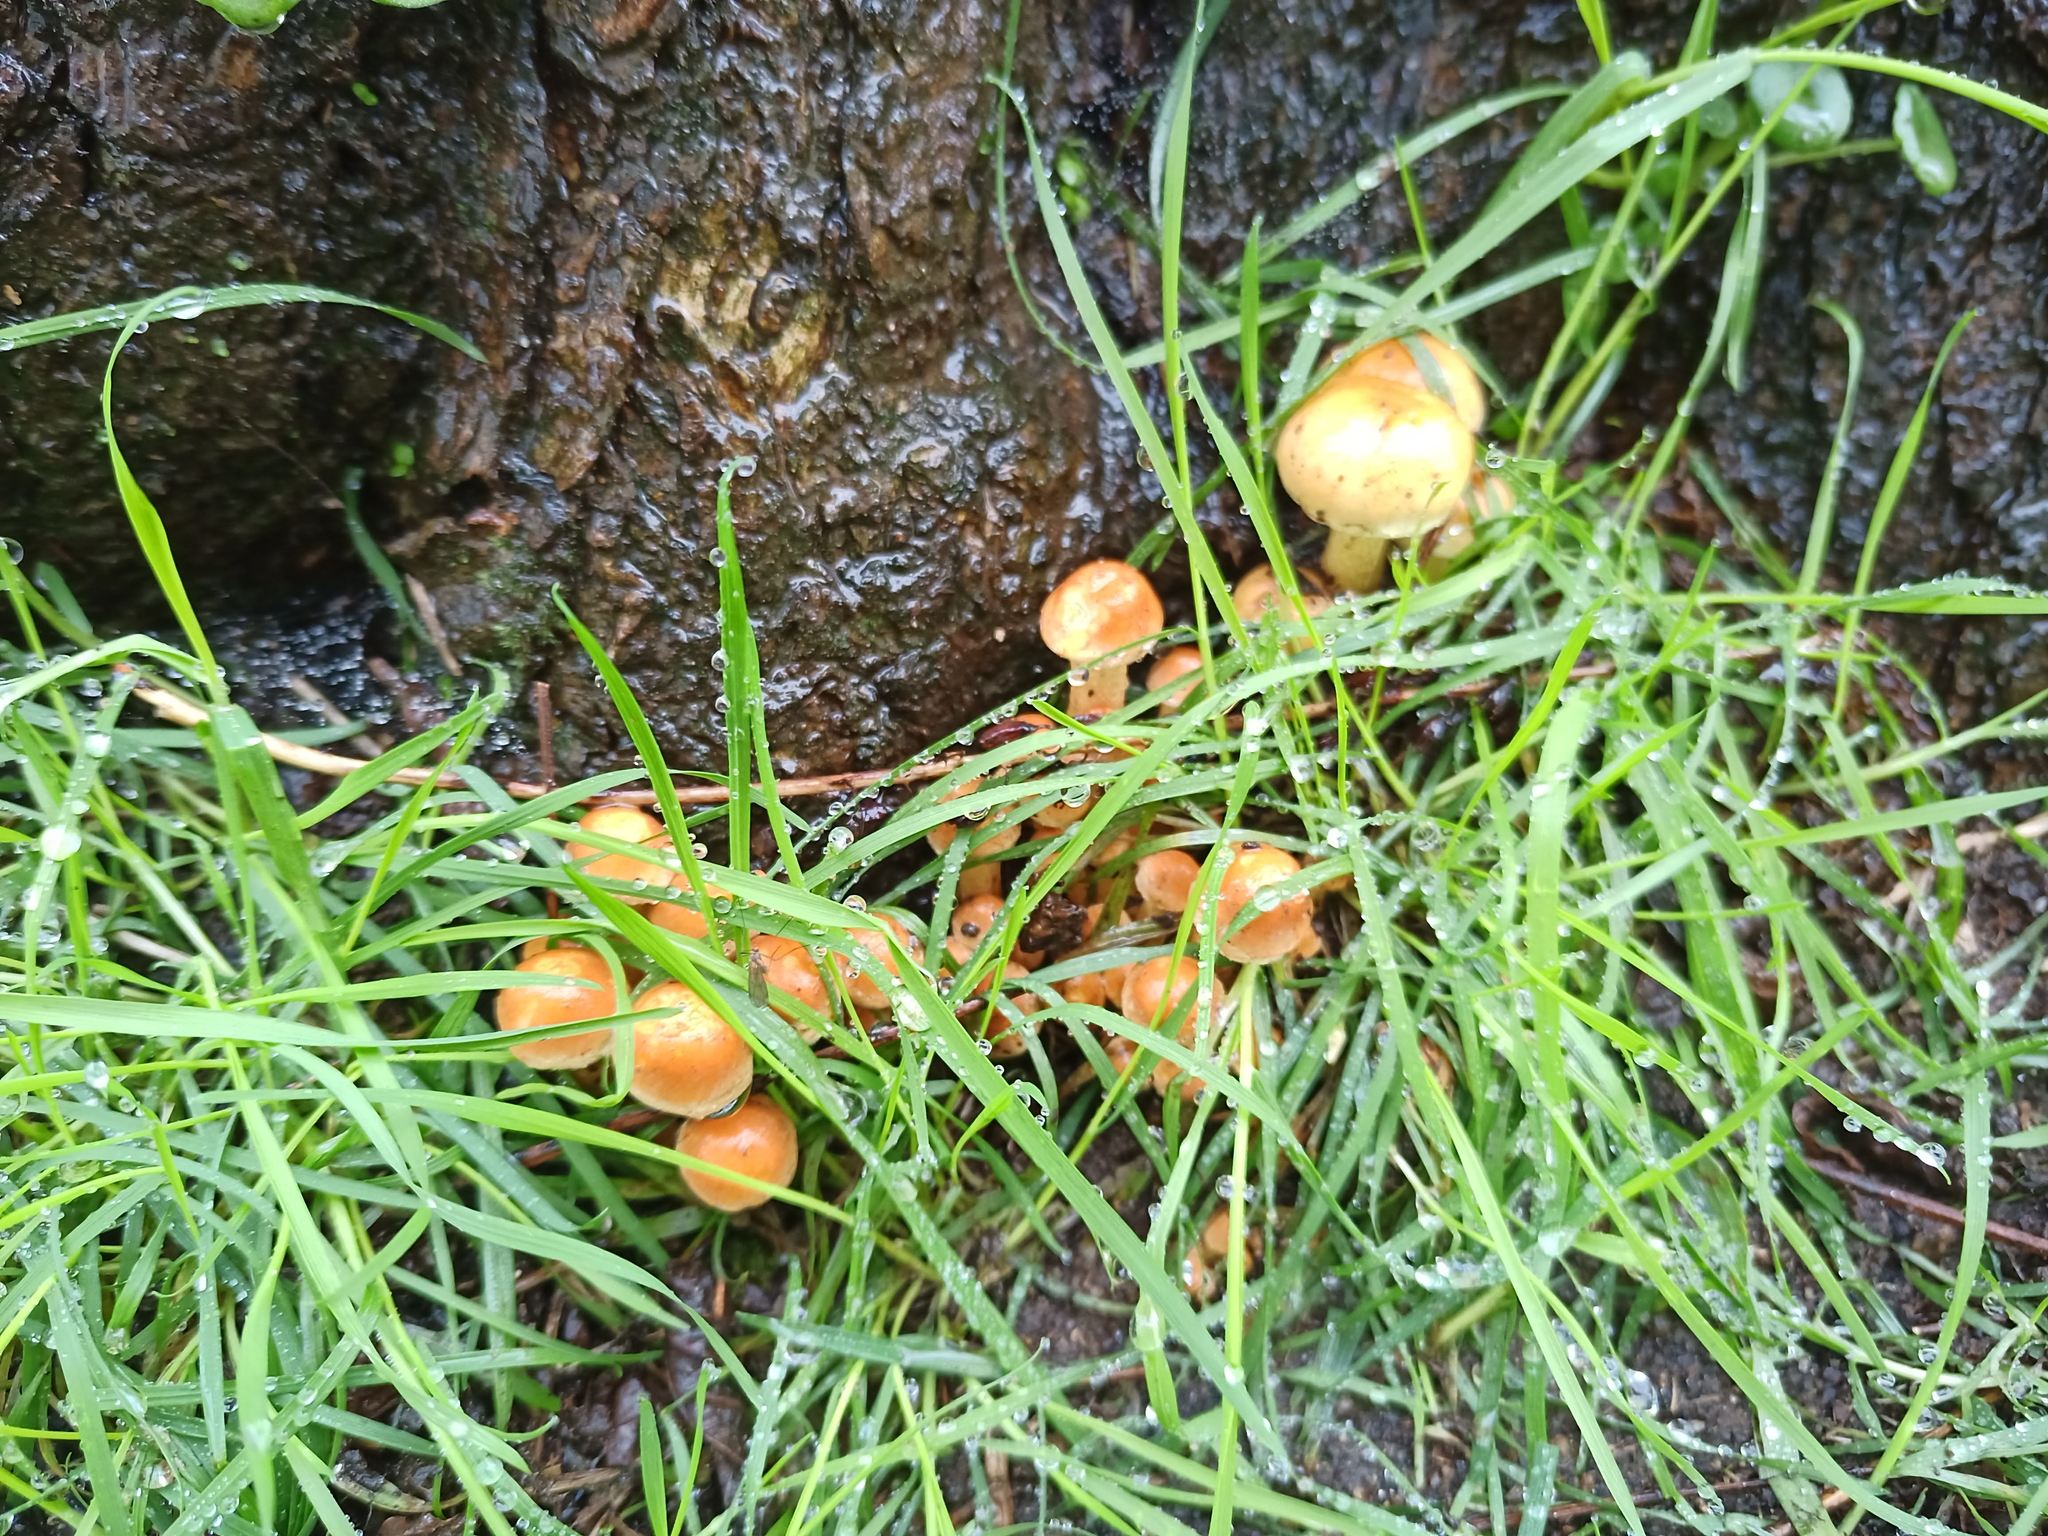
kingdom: Fungi
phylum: Basidiomycota
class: Agaricomycetes
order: Agaricales
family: Strophariaceae
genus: Hypholoma
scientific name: Hypholoma fasciculare
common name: Sulphur tuft
